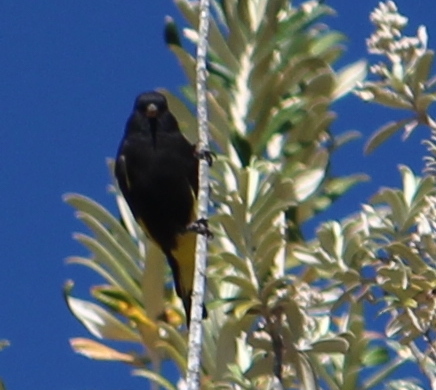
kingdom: Animalia
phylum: Chordata
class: Aves
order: Passeriformes
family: Fringillidae
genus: Spinus
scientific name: Spinus atratus
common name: Black siskin
